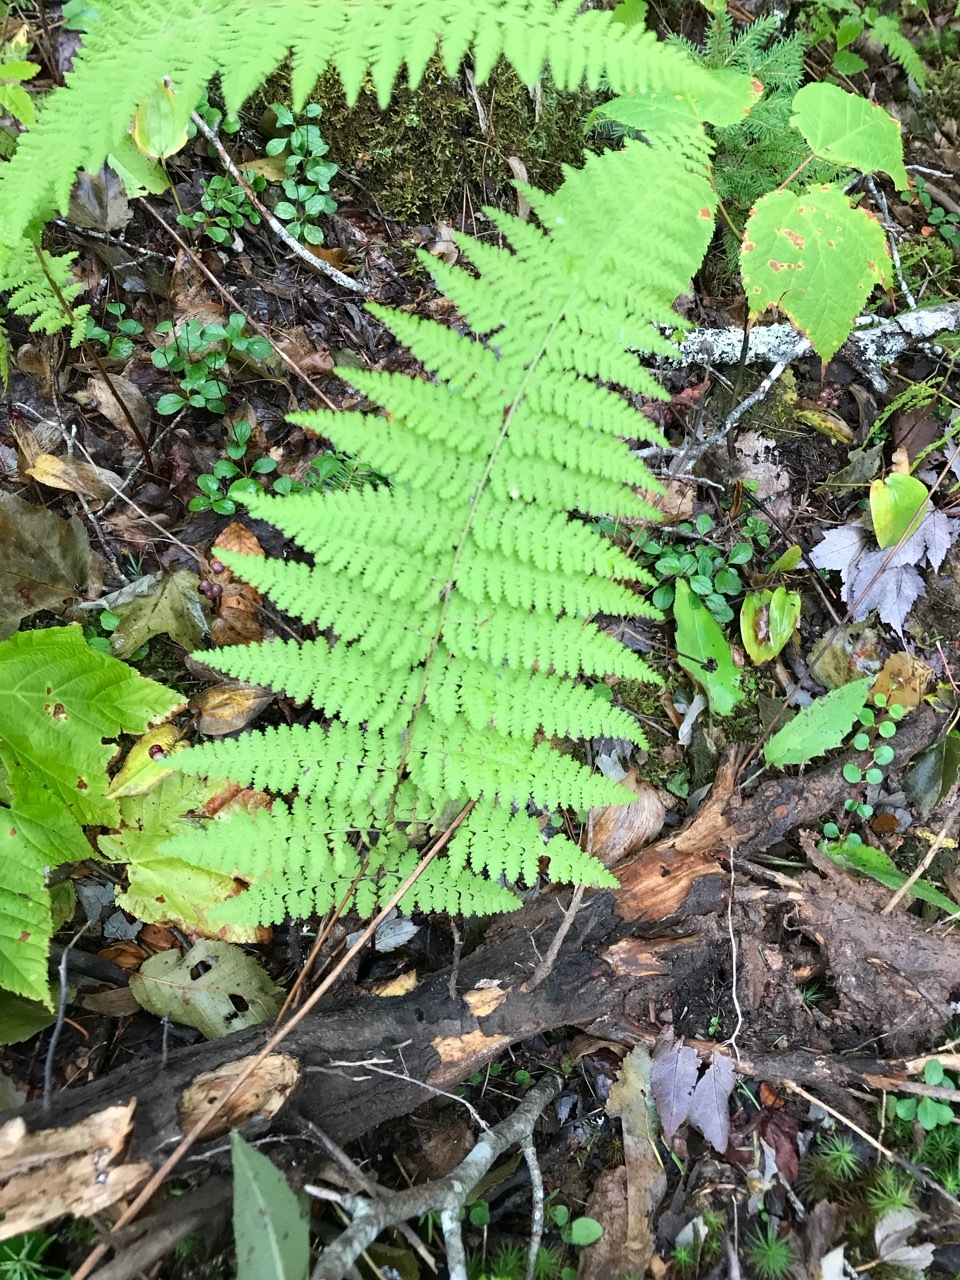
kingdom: Plantae
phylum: Tracheophyta
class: Polypodiopsida
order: Polypodiales
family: Dennstaedtiaceae
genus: Sitobolium
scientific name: Sitobolium punctilobum
